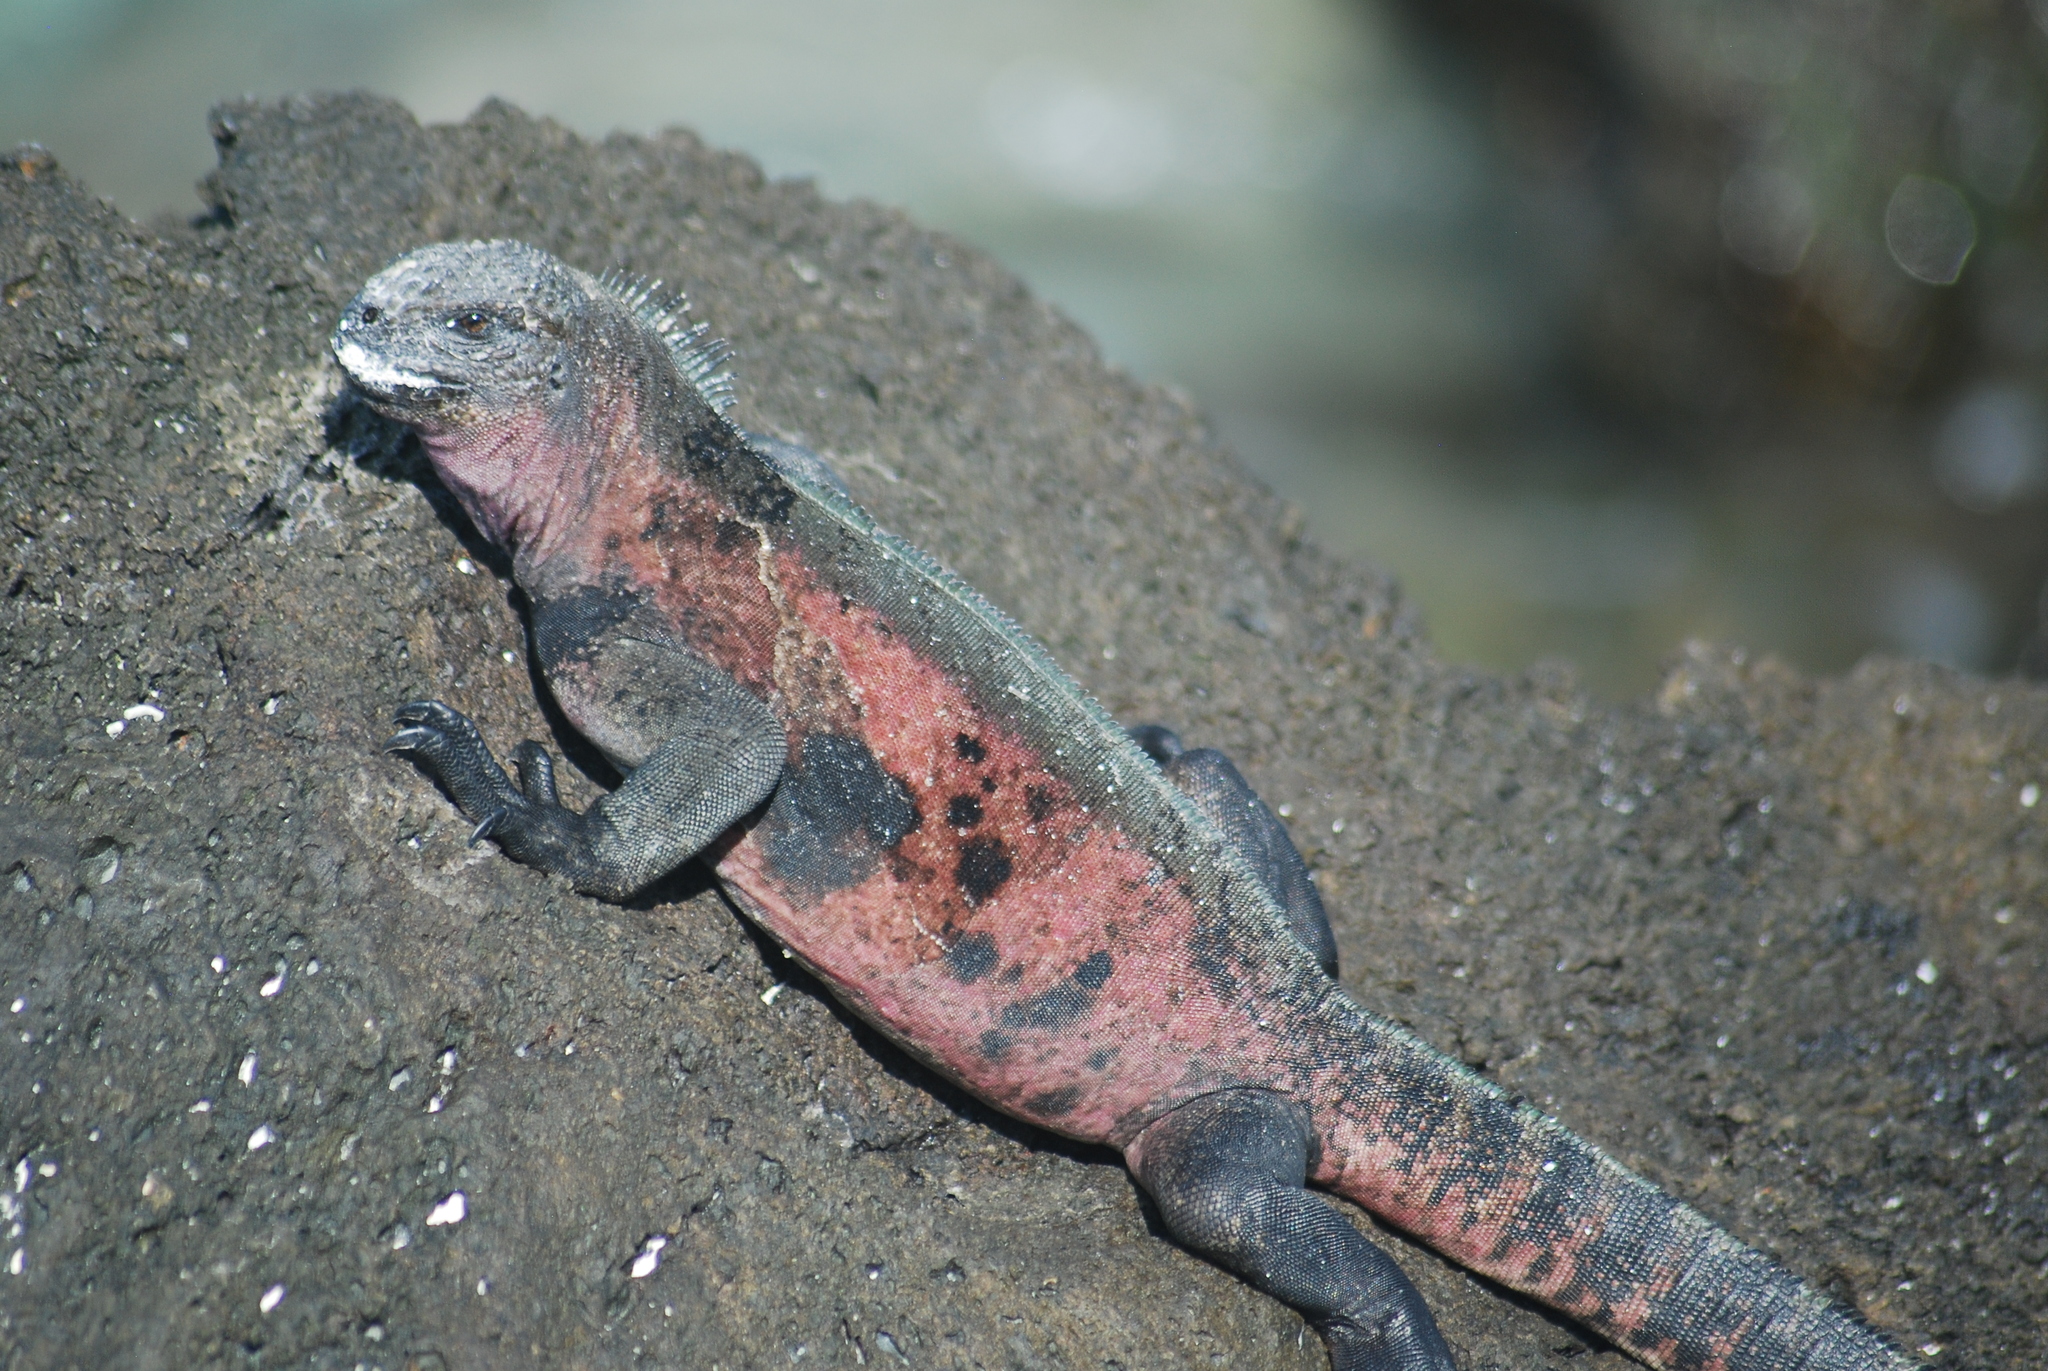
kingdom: Animalia
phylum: Chordata
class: Squamata
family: Iguanidae
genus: Amblyrhynchus
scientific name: Amblyrhynchus cristatus
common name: Marine iguana
